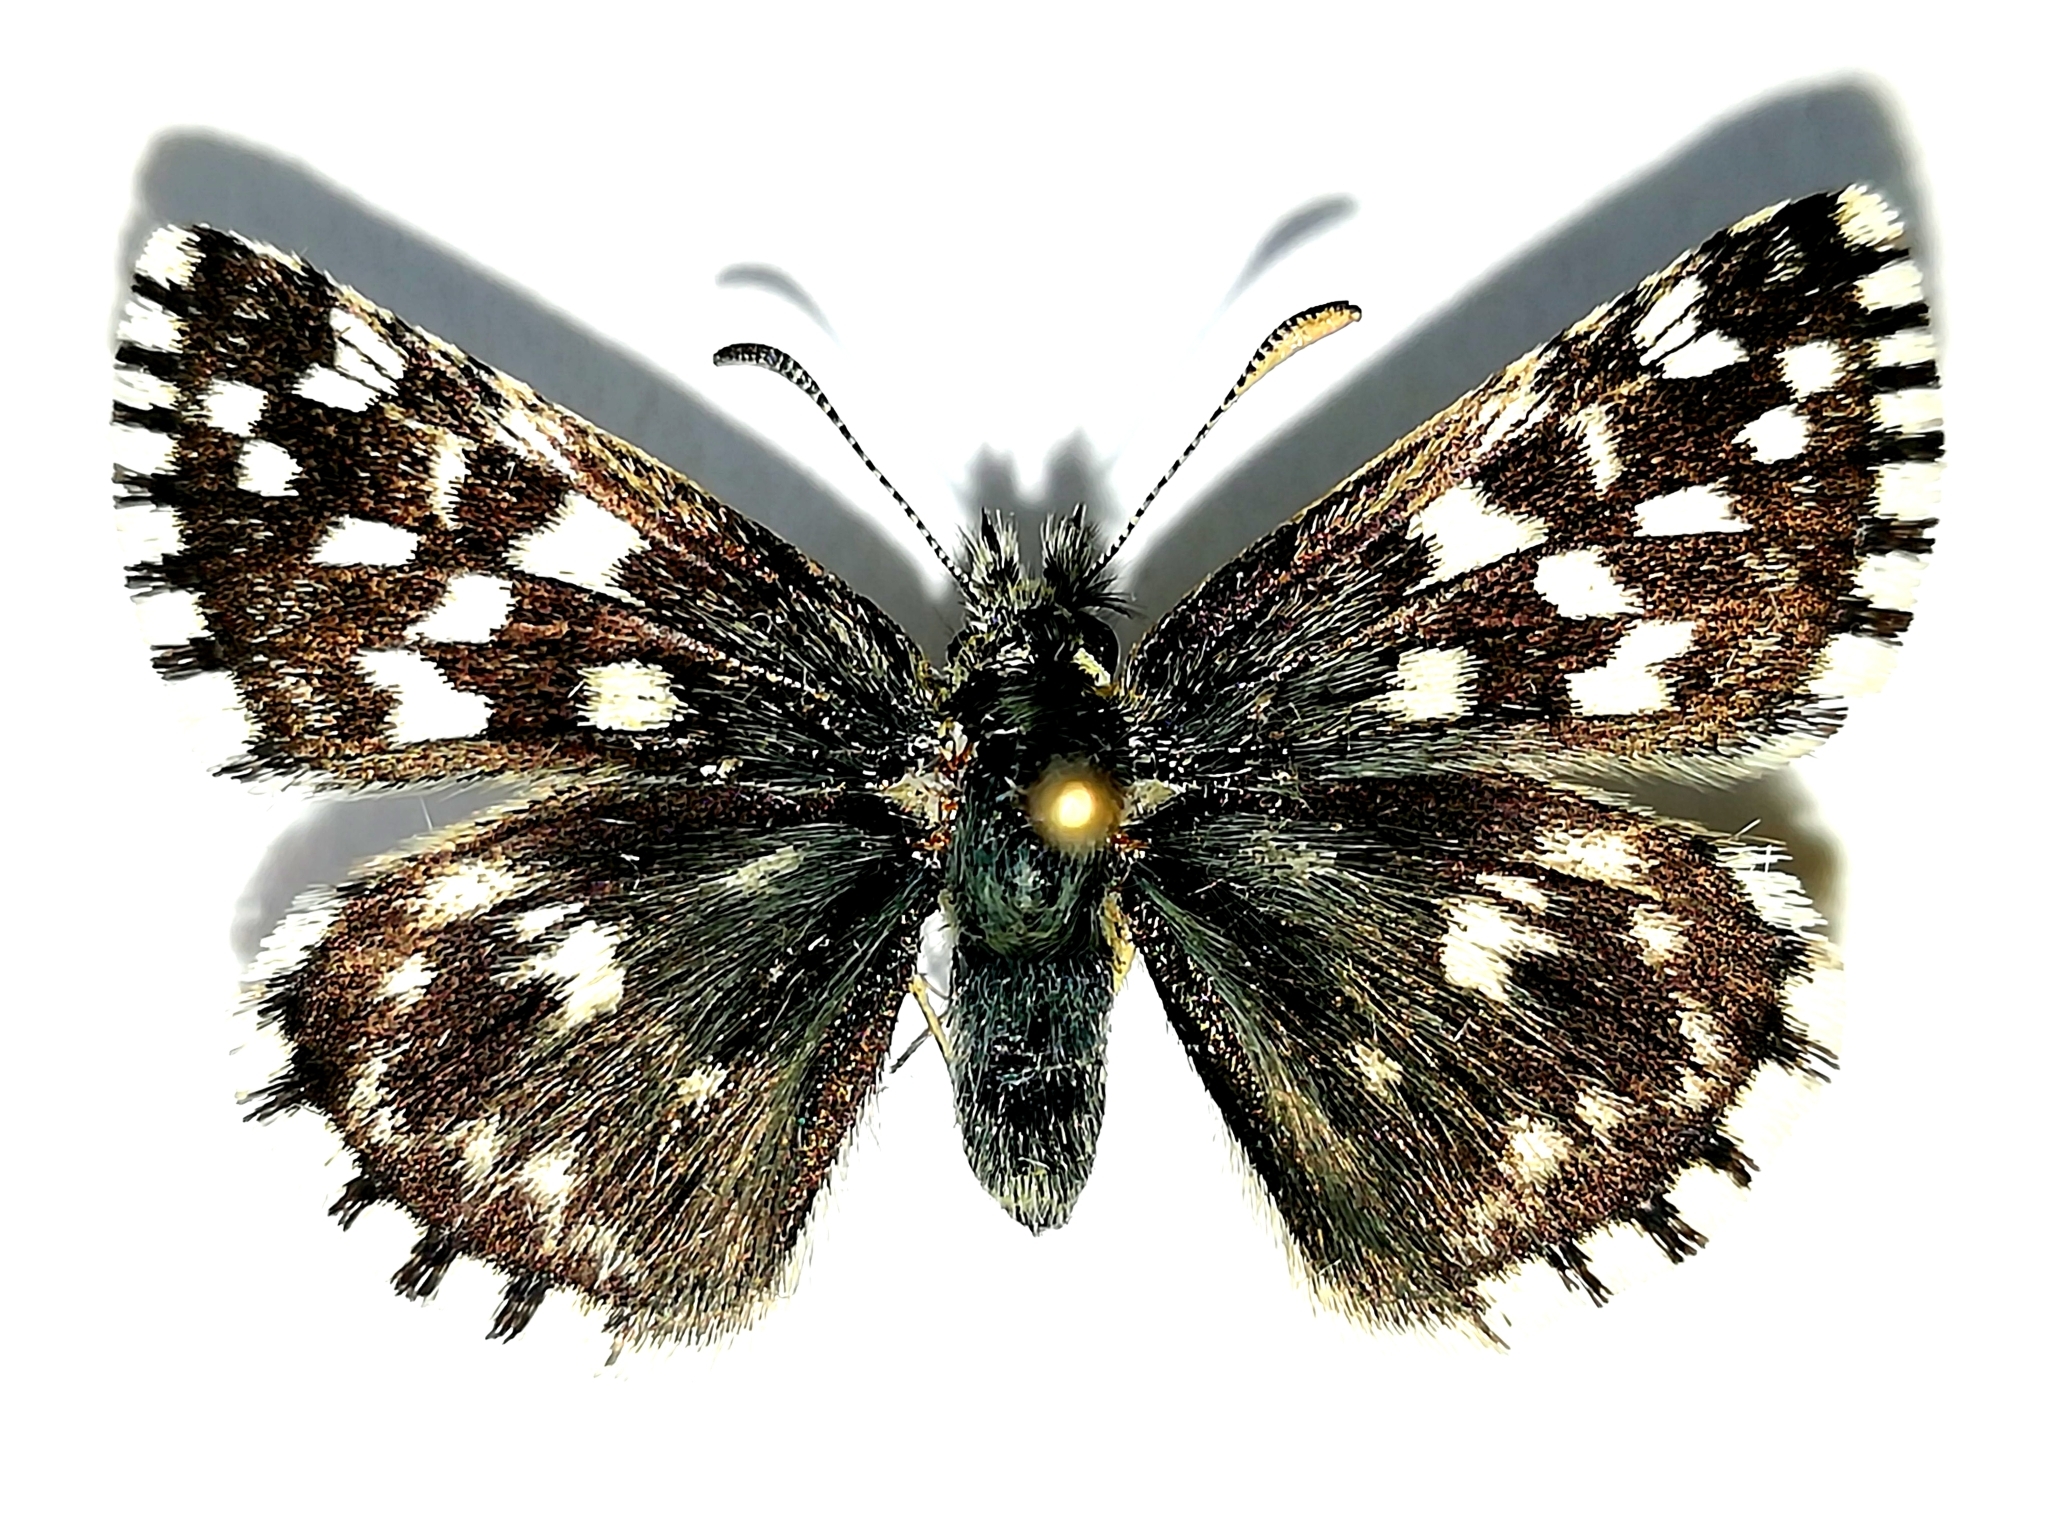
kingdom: Animalia
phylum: Arthropoda
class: Insecta
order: Lepidoptera
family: Hesperiidae
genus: Pyrgus
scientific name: Pyrgus malvae
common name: Grizzled skipper
